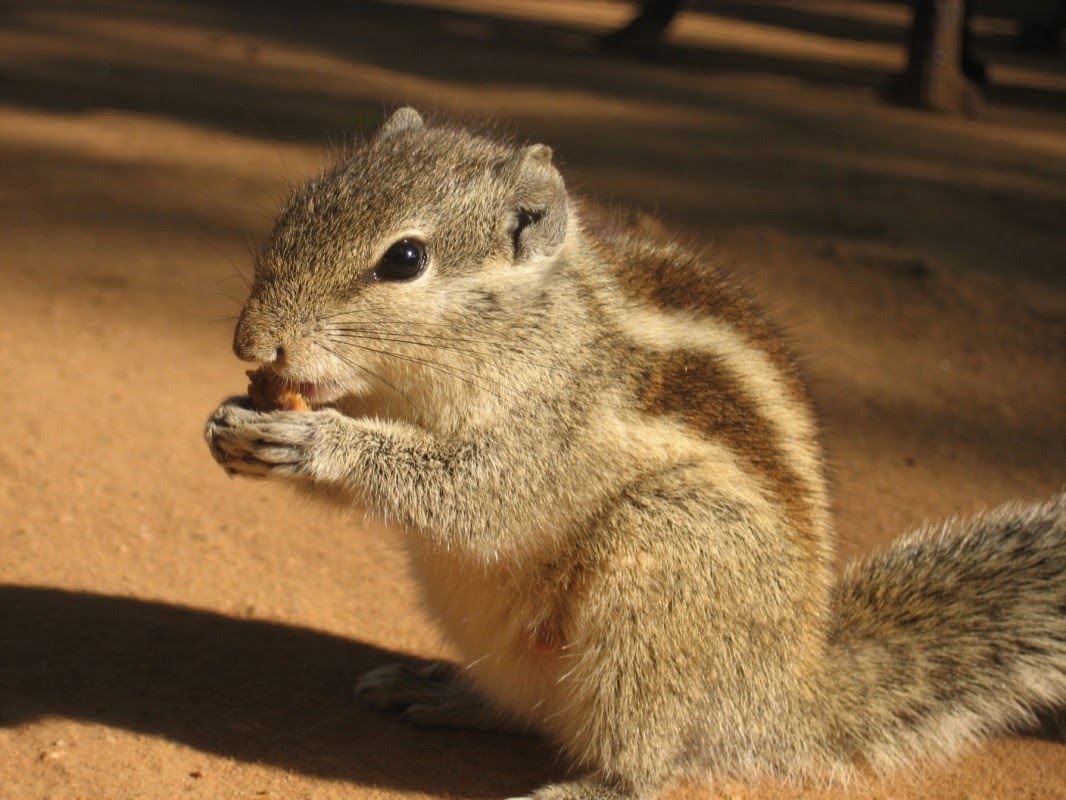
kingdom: Animalia
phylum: Chordata
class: Mammalia
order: Rodentia
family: Sciuridae
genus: Funambulus
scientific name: Funambulus pennantii
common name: Northern palm squirrel
